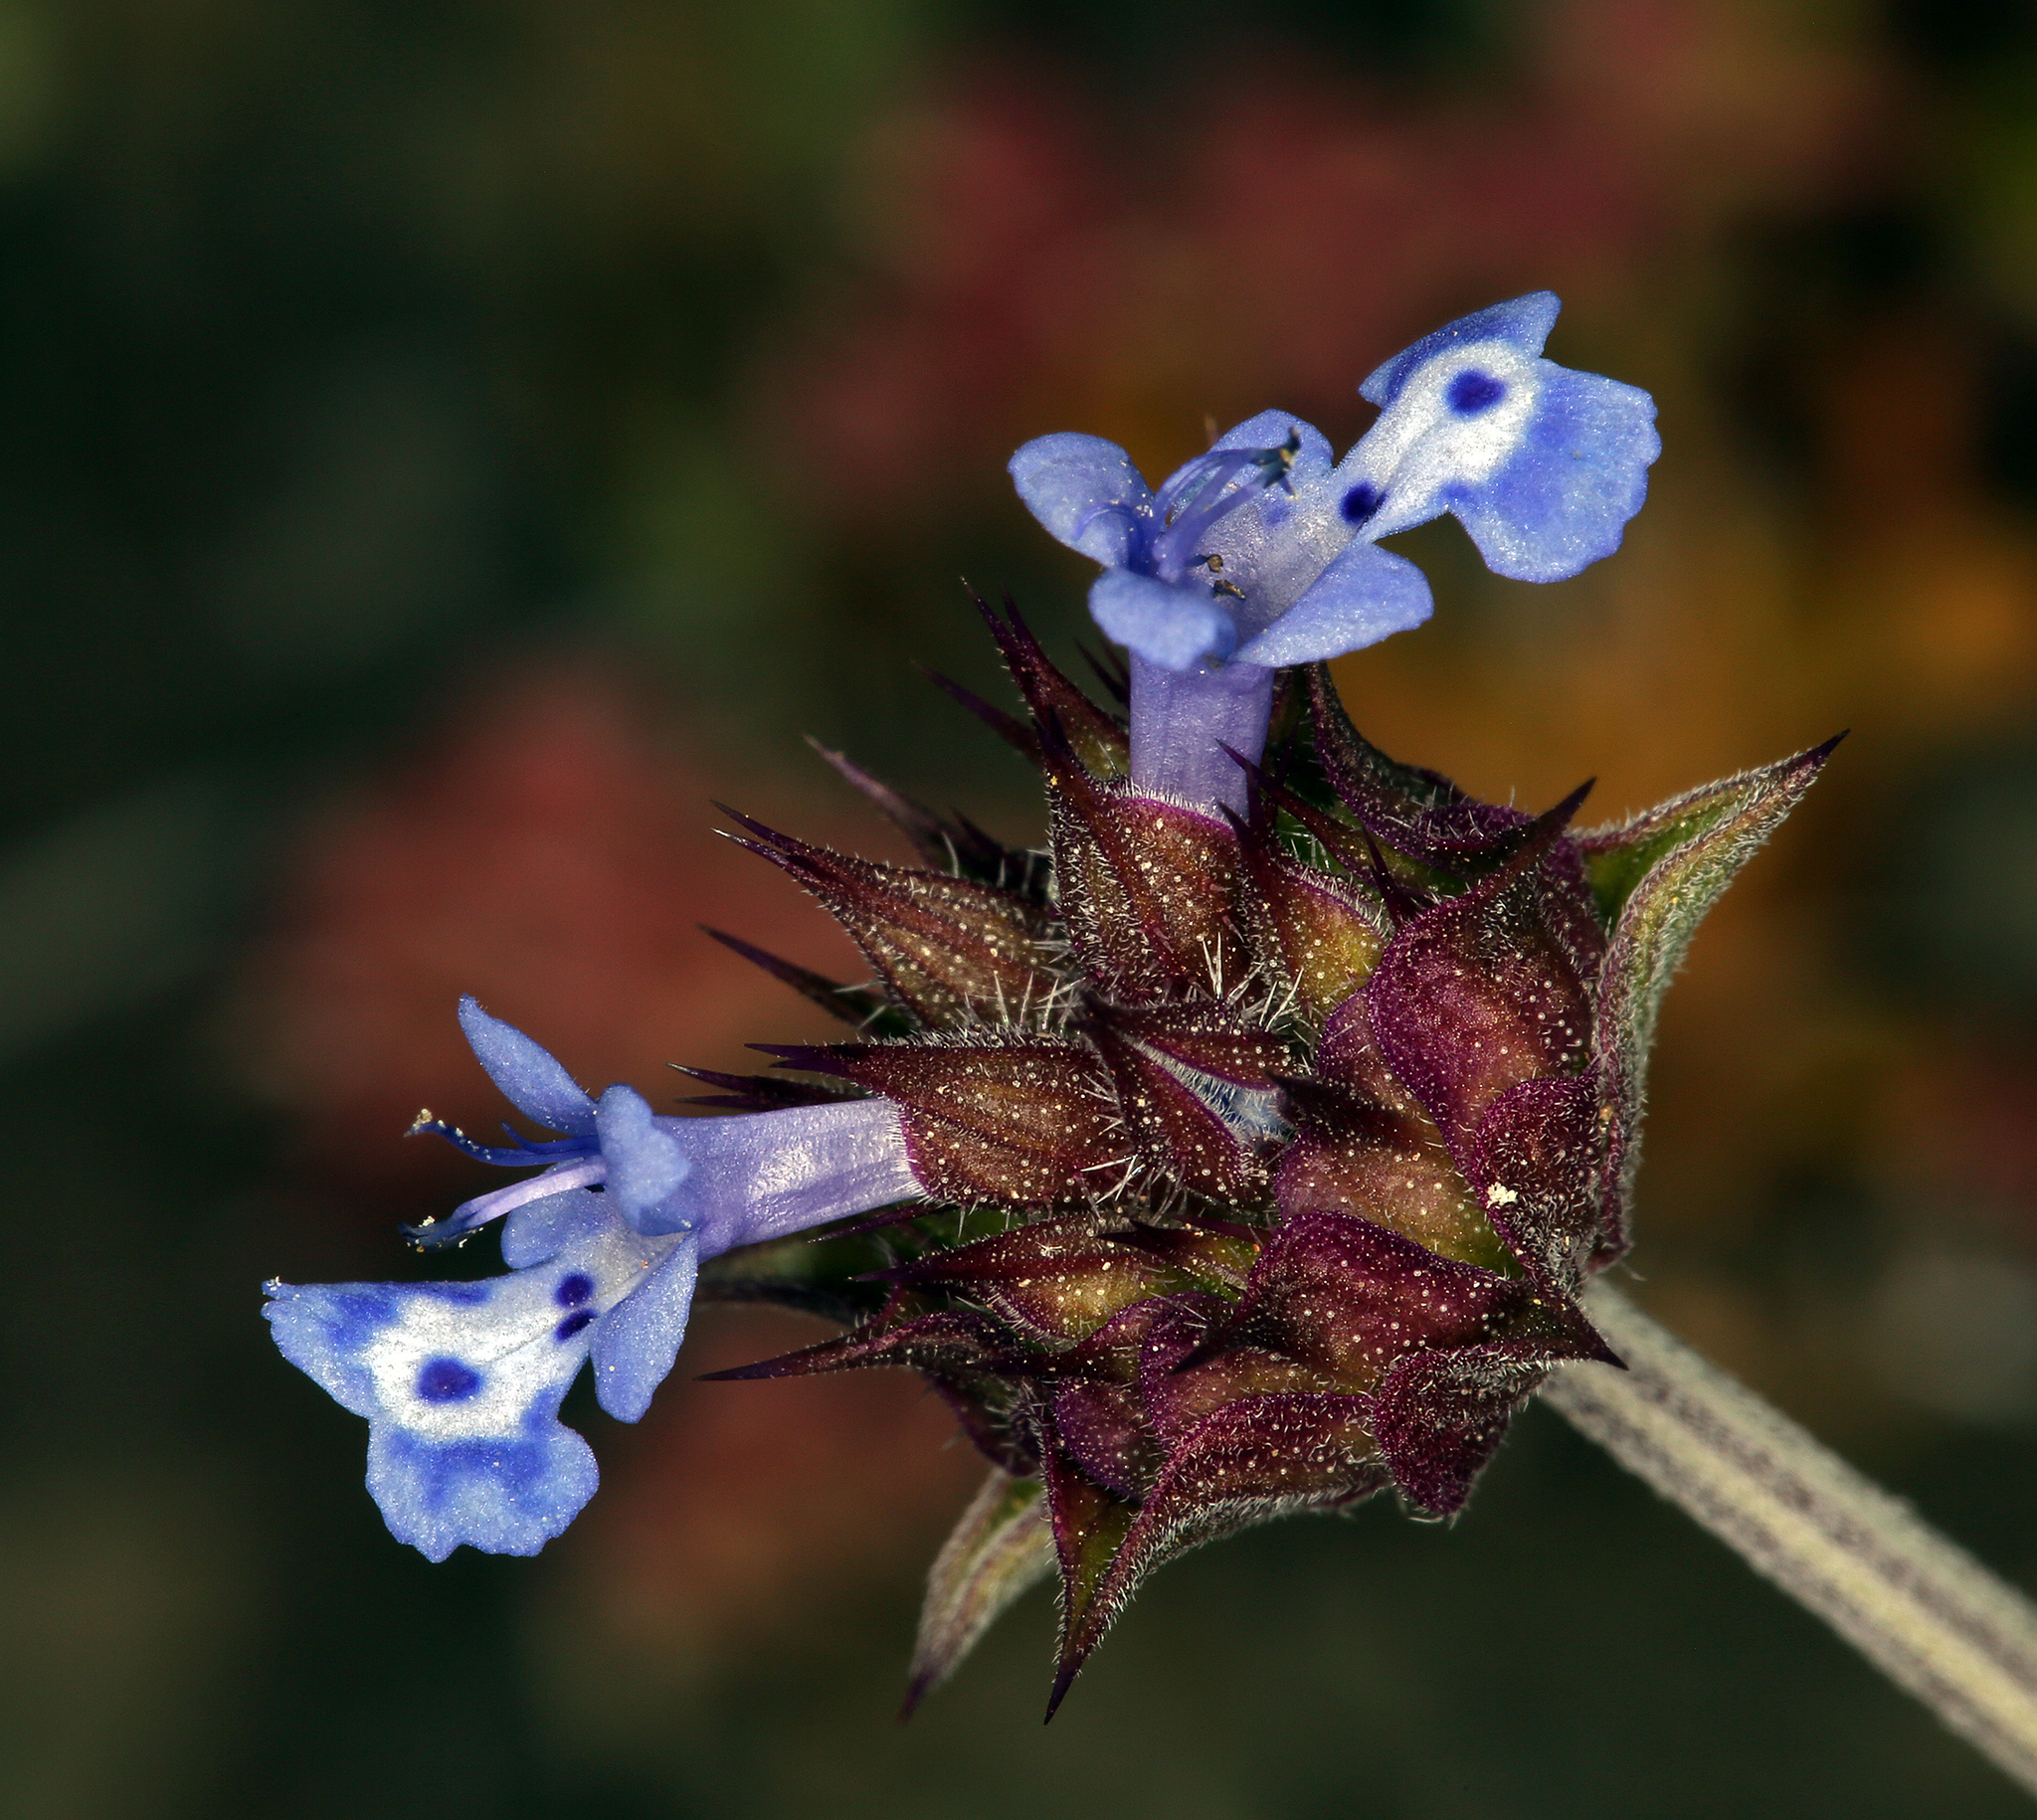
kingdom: Plantae
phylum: Tracheophyta
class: Magnoliopsida
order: Lamiales
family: Lamiaceae
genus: Salvia
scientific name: Salvia columbariae
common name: Chia
